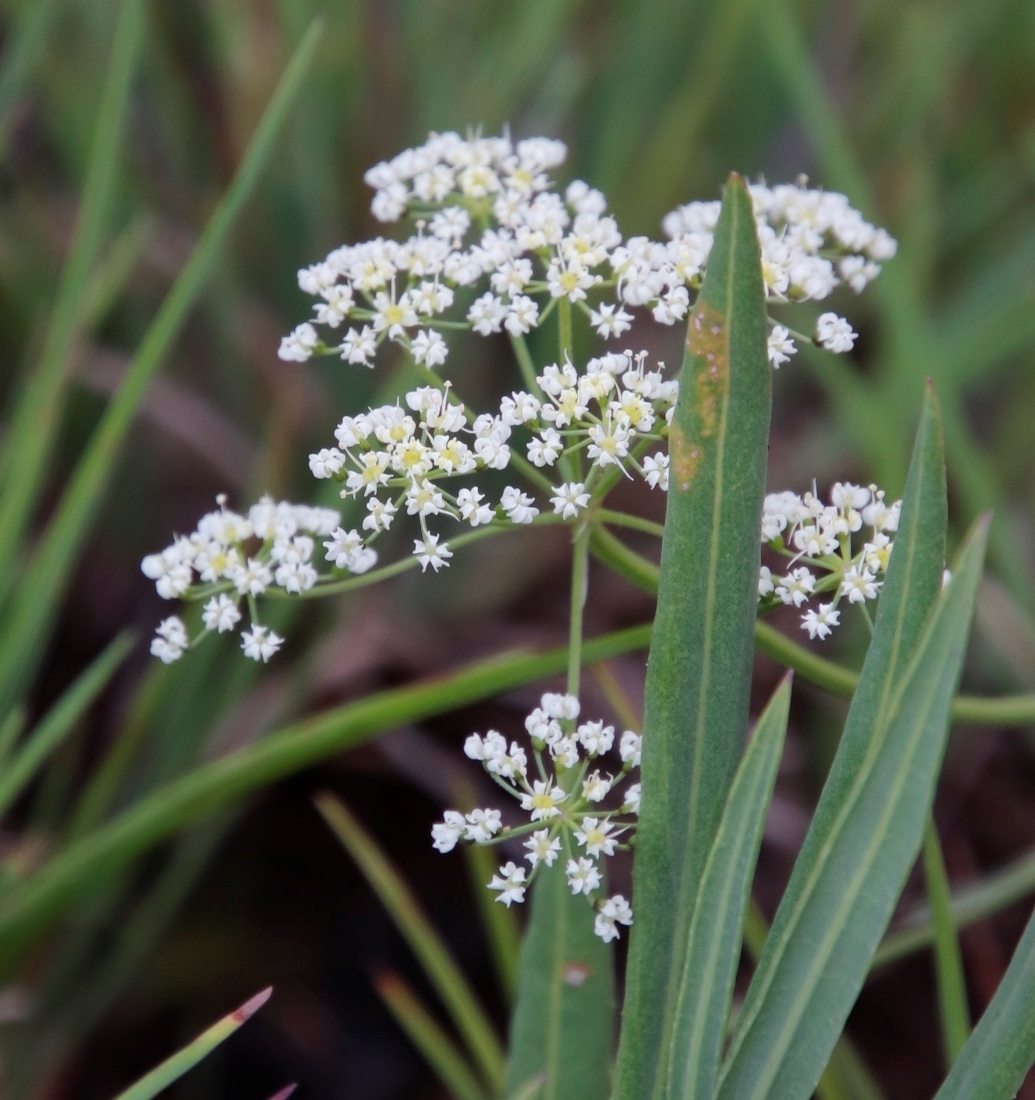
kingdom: Plantae
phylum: Tracheophyta
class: Magnoliopsida
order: Apiales
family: Apiaceae
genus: Pimpinella
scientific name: Pimpinella caffra
